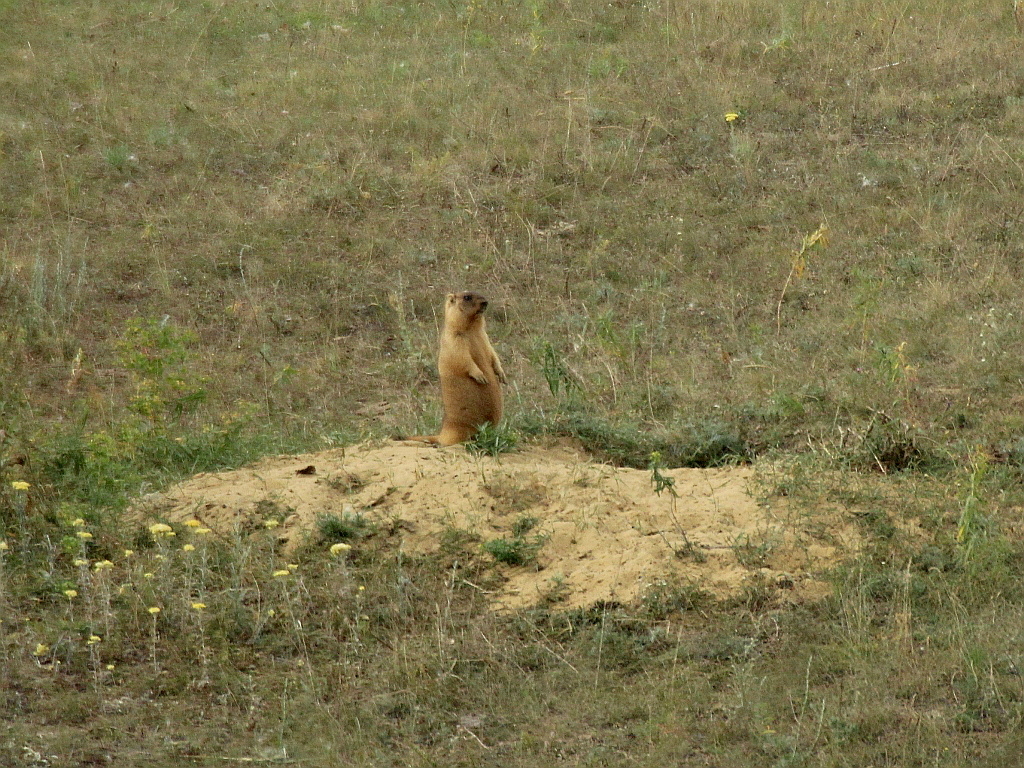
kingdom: Animalia
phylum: Chordata
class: Mammalia
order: Rodentia
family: Sciuridae
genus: Marmota
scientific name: Marmota bobak
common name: Bobak marmot
